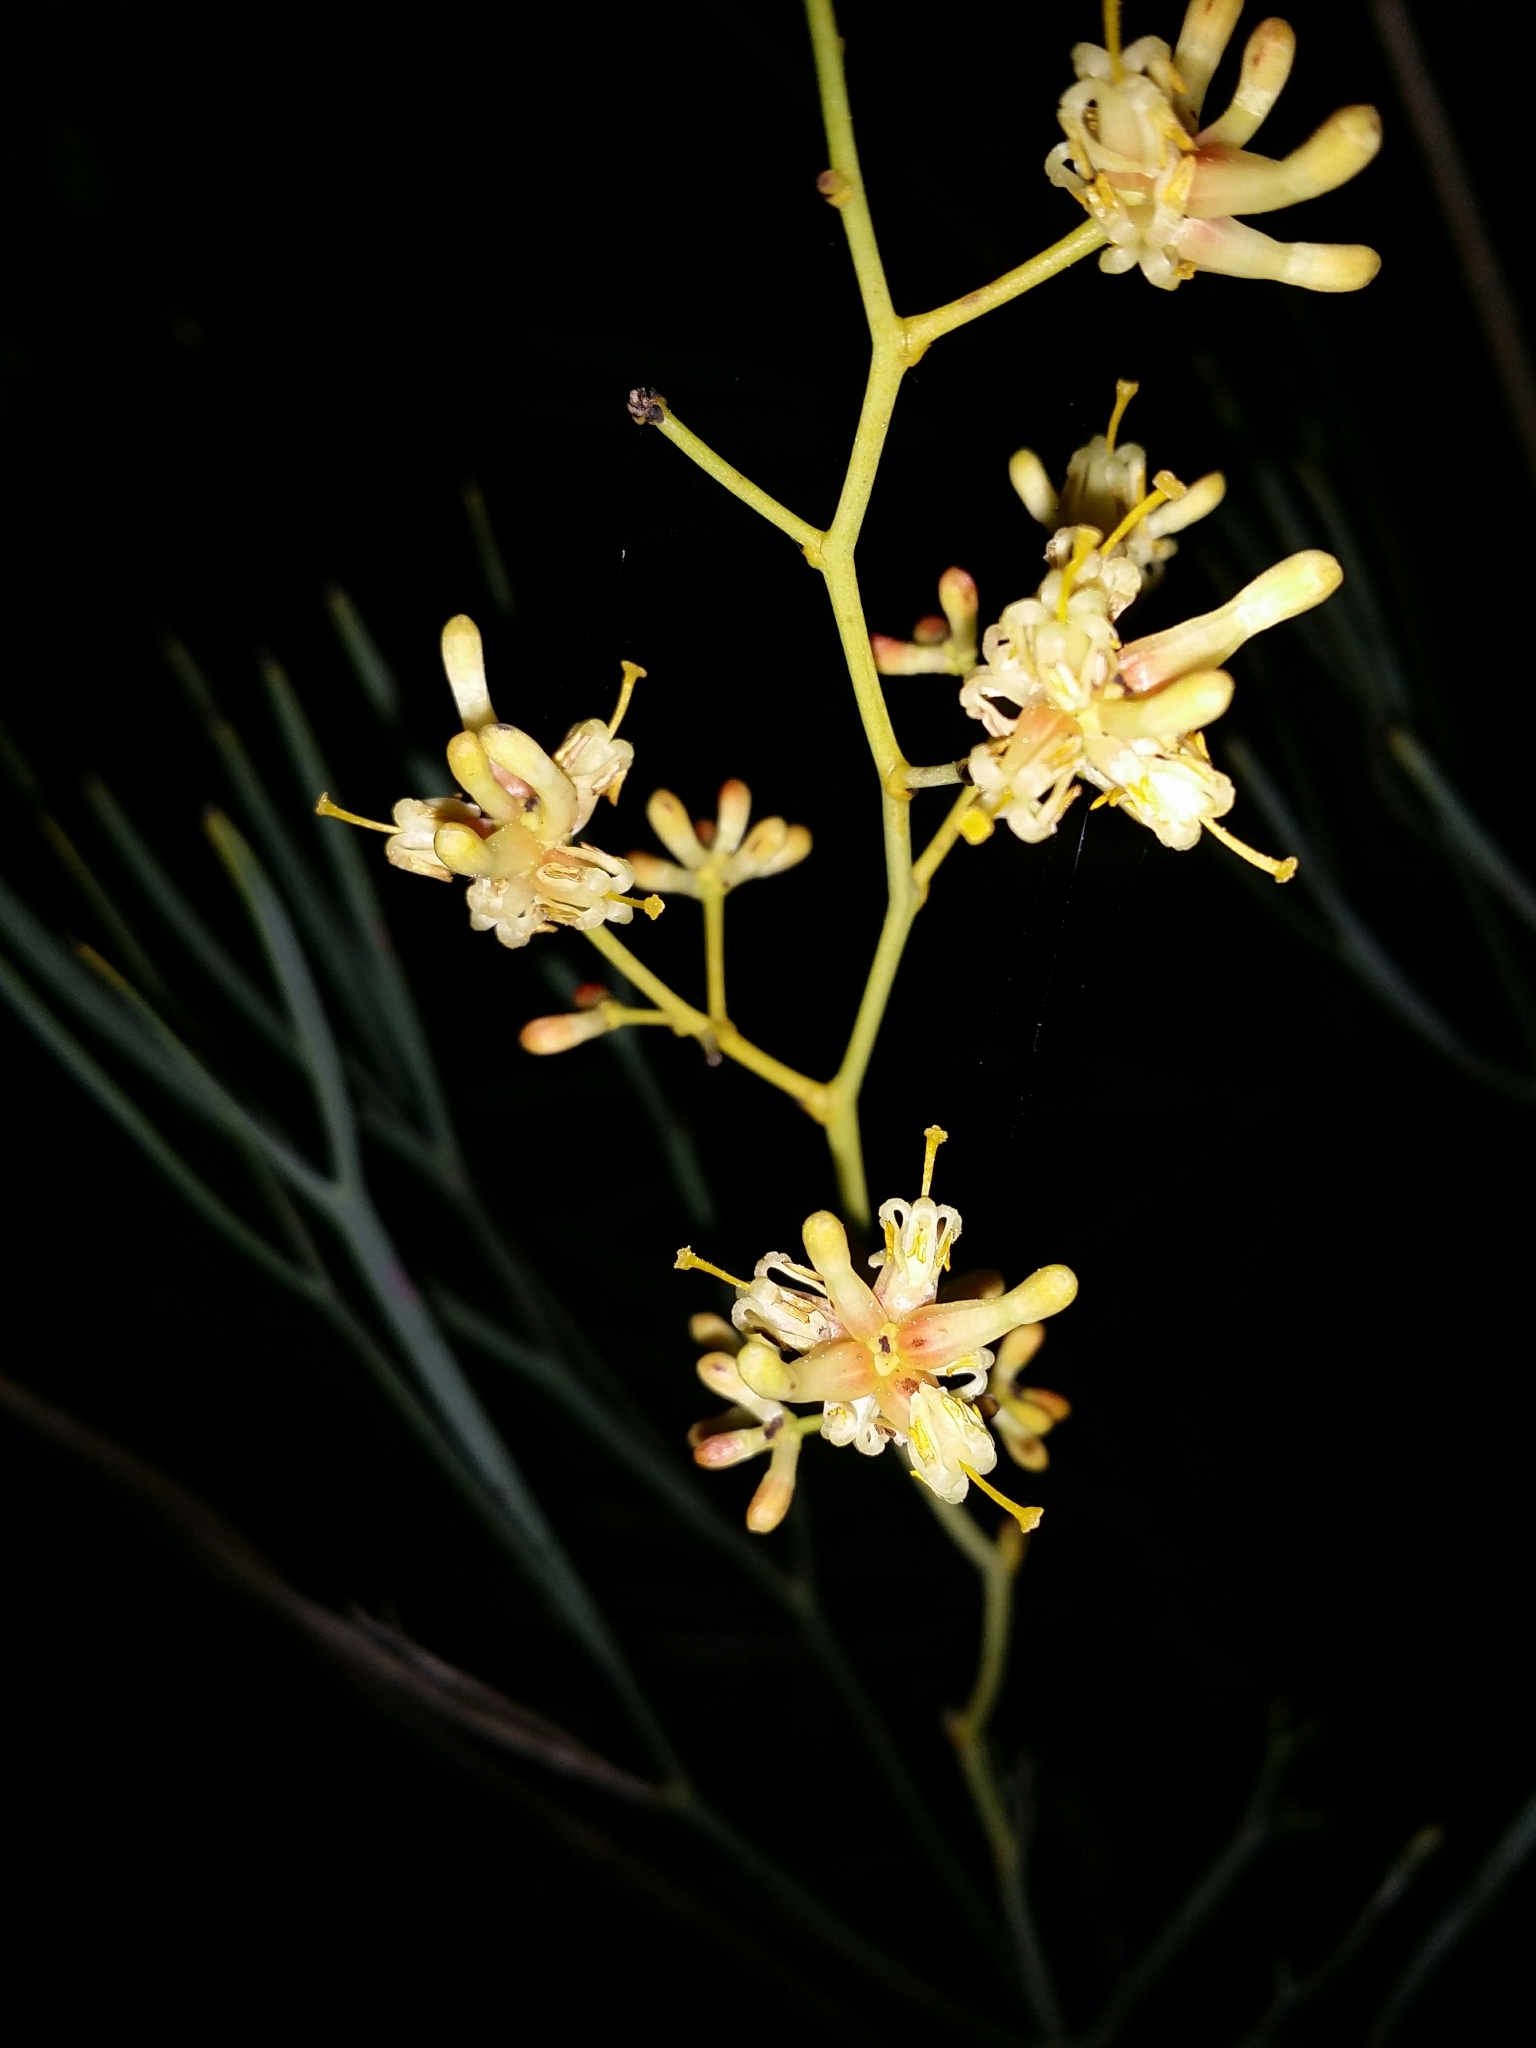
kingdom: Plantae
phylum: Tracheophyta
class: Magnoliopsida
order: Proteales
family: Proteaceae
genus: Stirlingia
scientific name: Stirlingia latifolia
